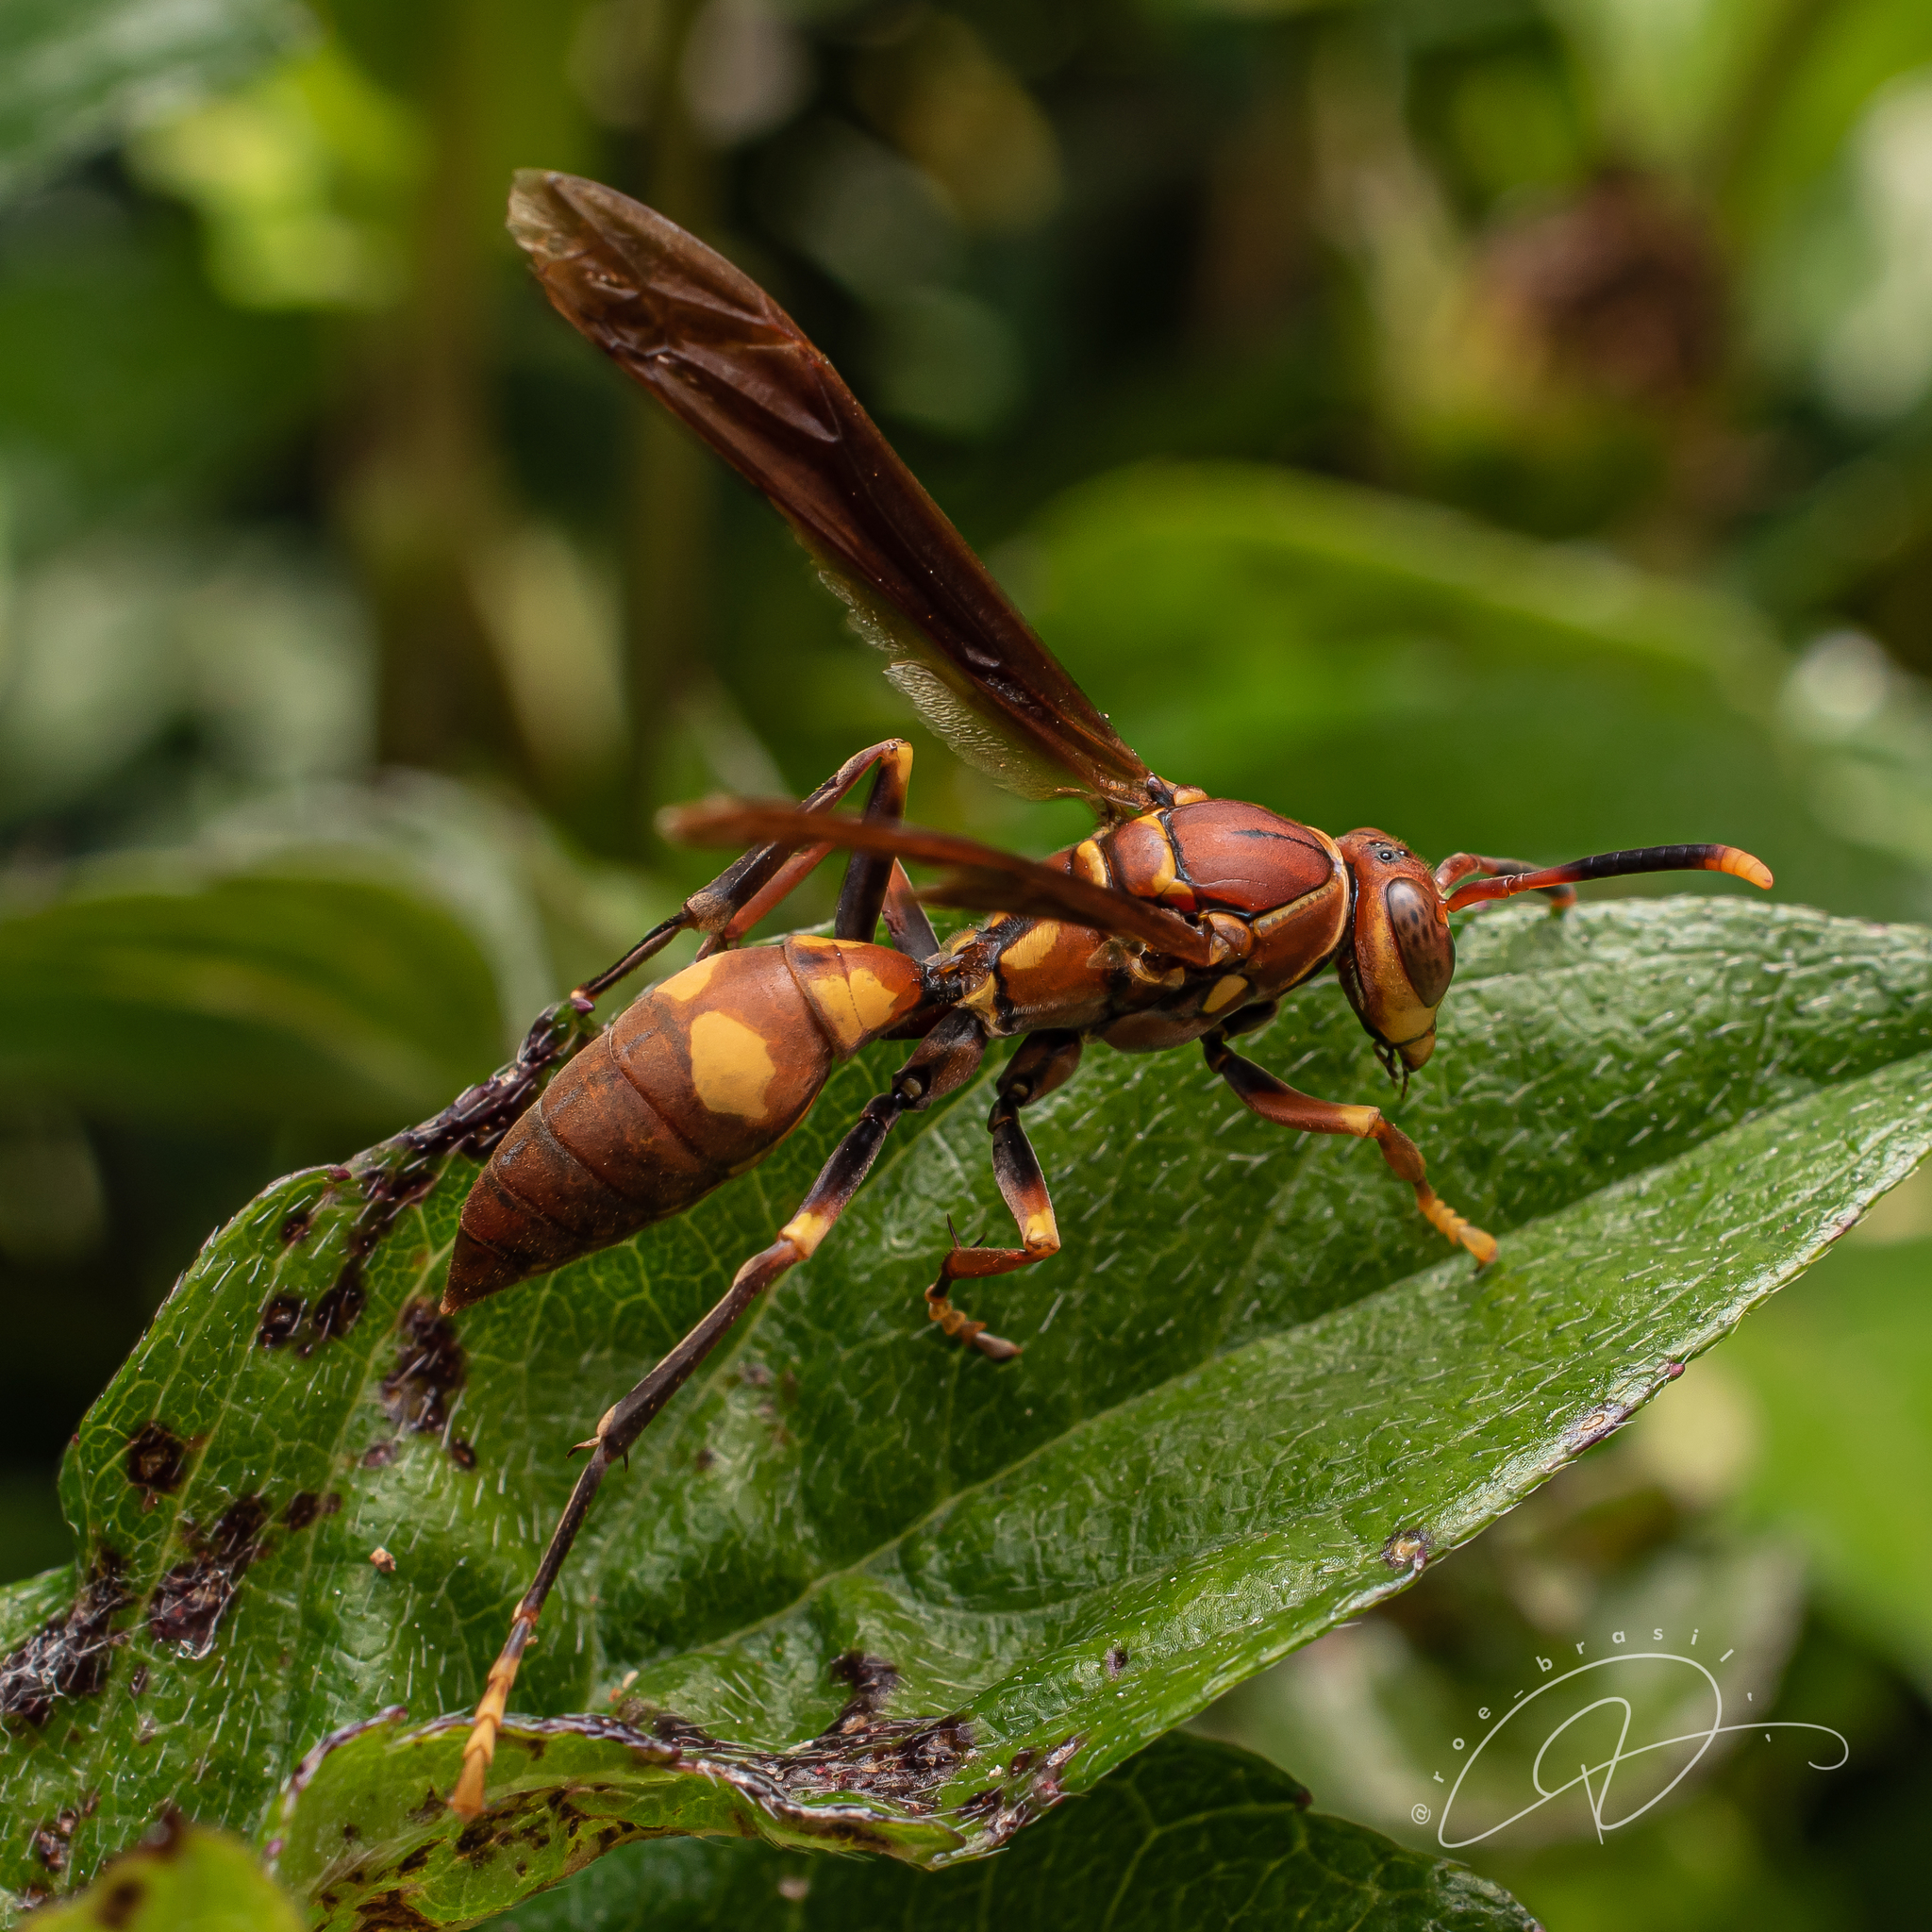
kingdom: Animalia
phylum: Arthropoda
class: Insecta
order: Hymenoptera
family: Eumenidae
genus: Polistes
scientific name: Polistes simillimus
